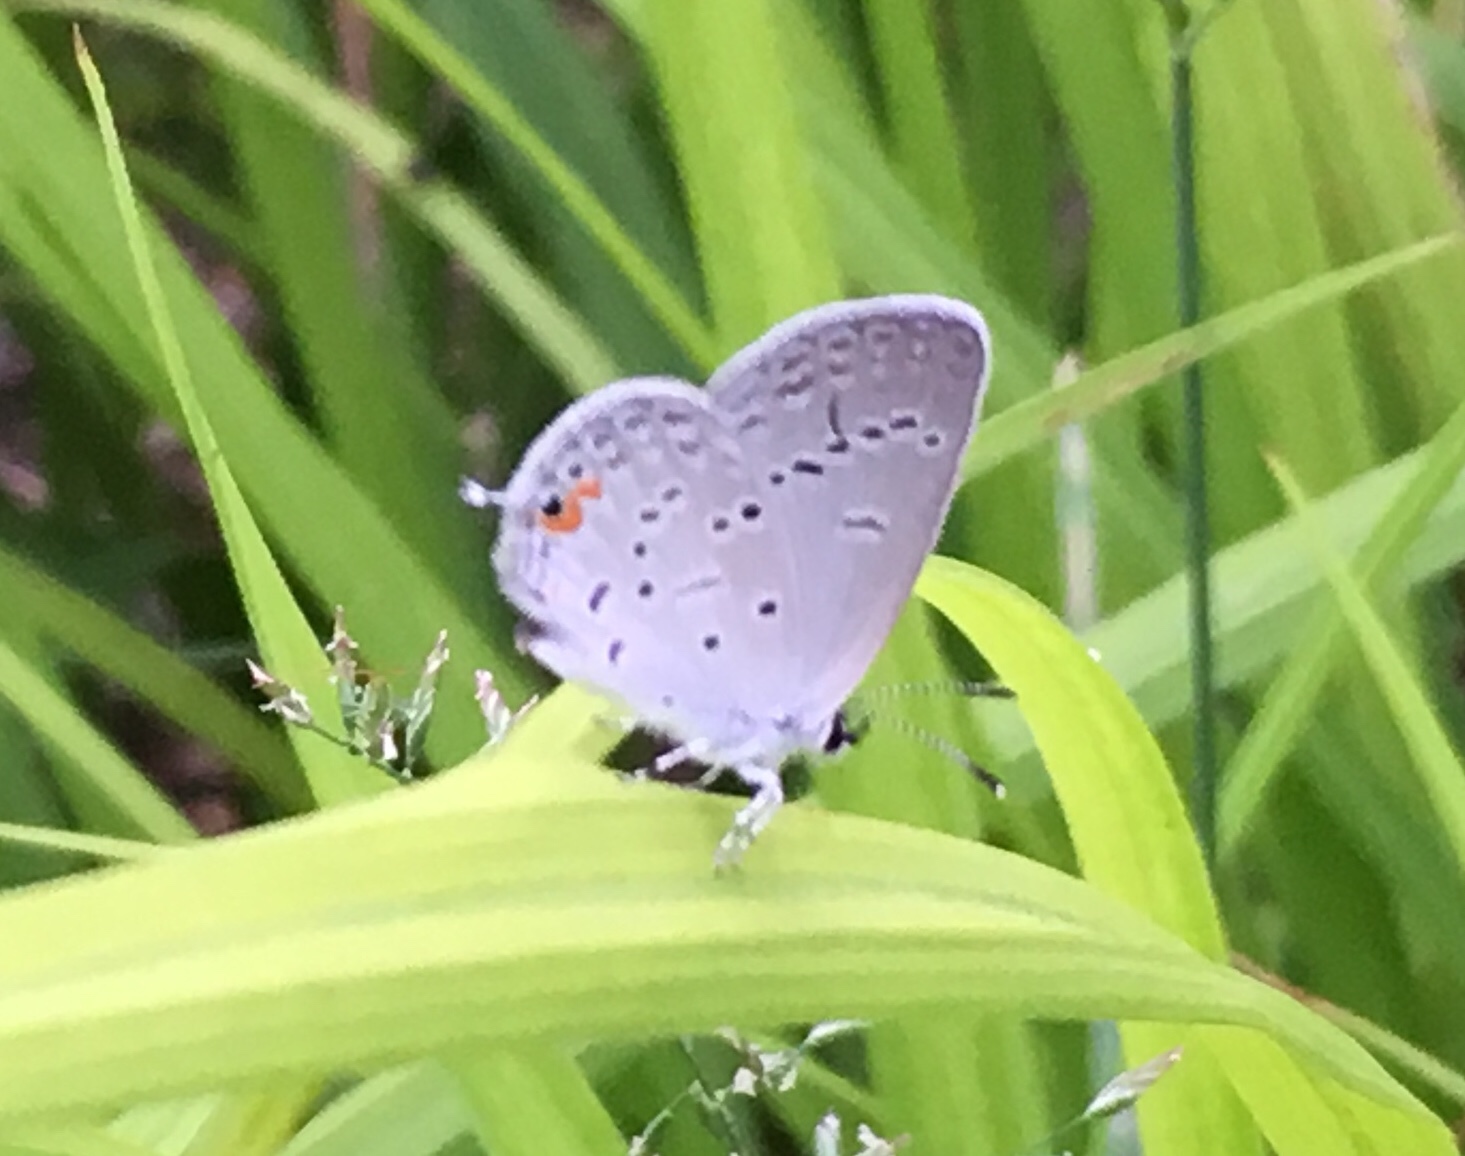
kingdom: Animalia
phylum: Arthropoda
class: Insecta
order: Lepidoptera
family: Lycaenidae
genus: Elkalyce
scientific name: Elkalyce comyntas
